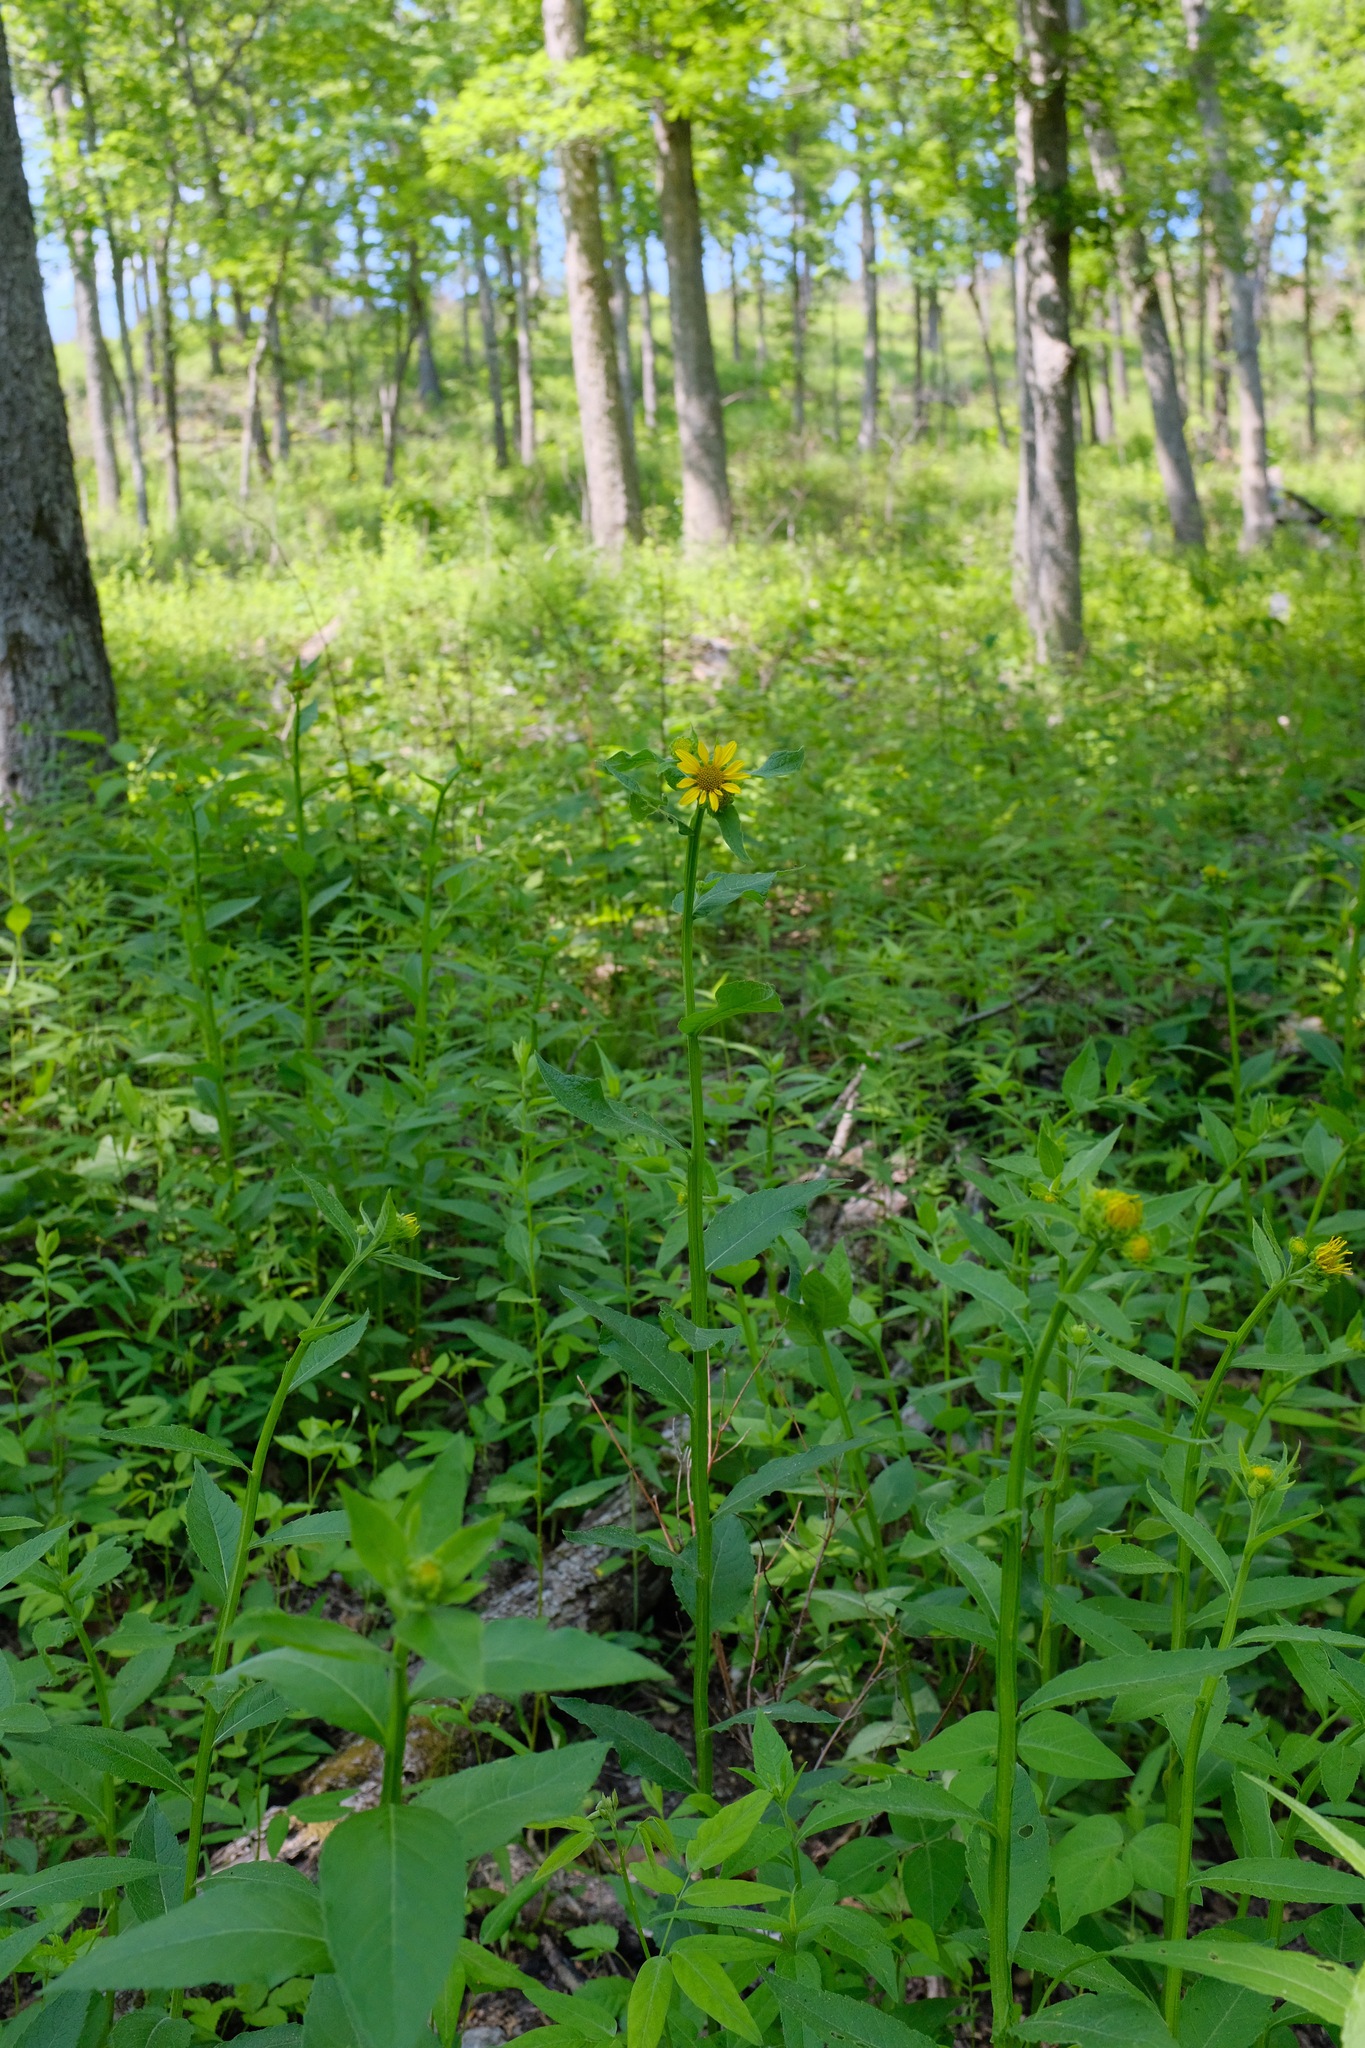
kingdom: Plantae
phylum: Tracheophyta
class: Magnoliopsida
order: Asterales
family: Asteraceae
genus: Verbesina
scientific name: Verbesina helianthoides
